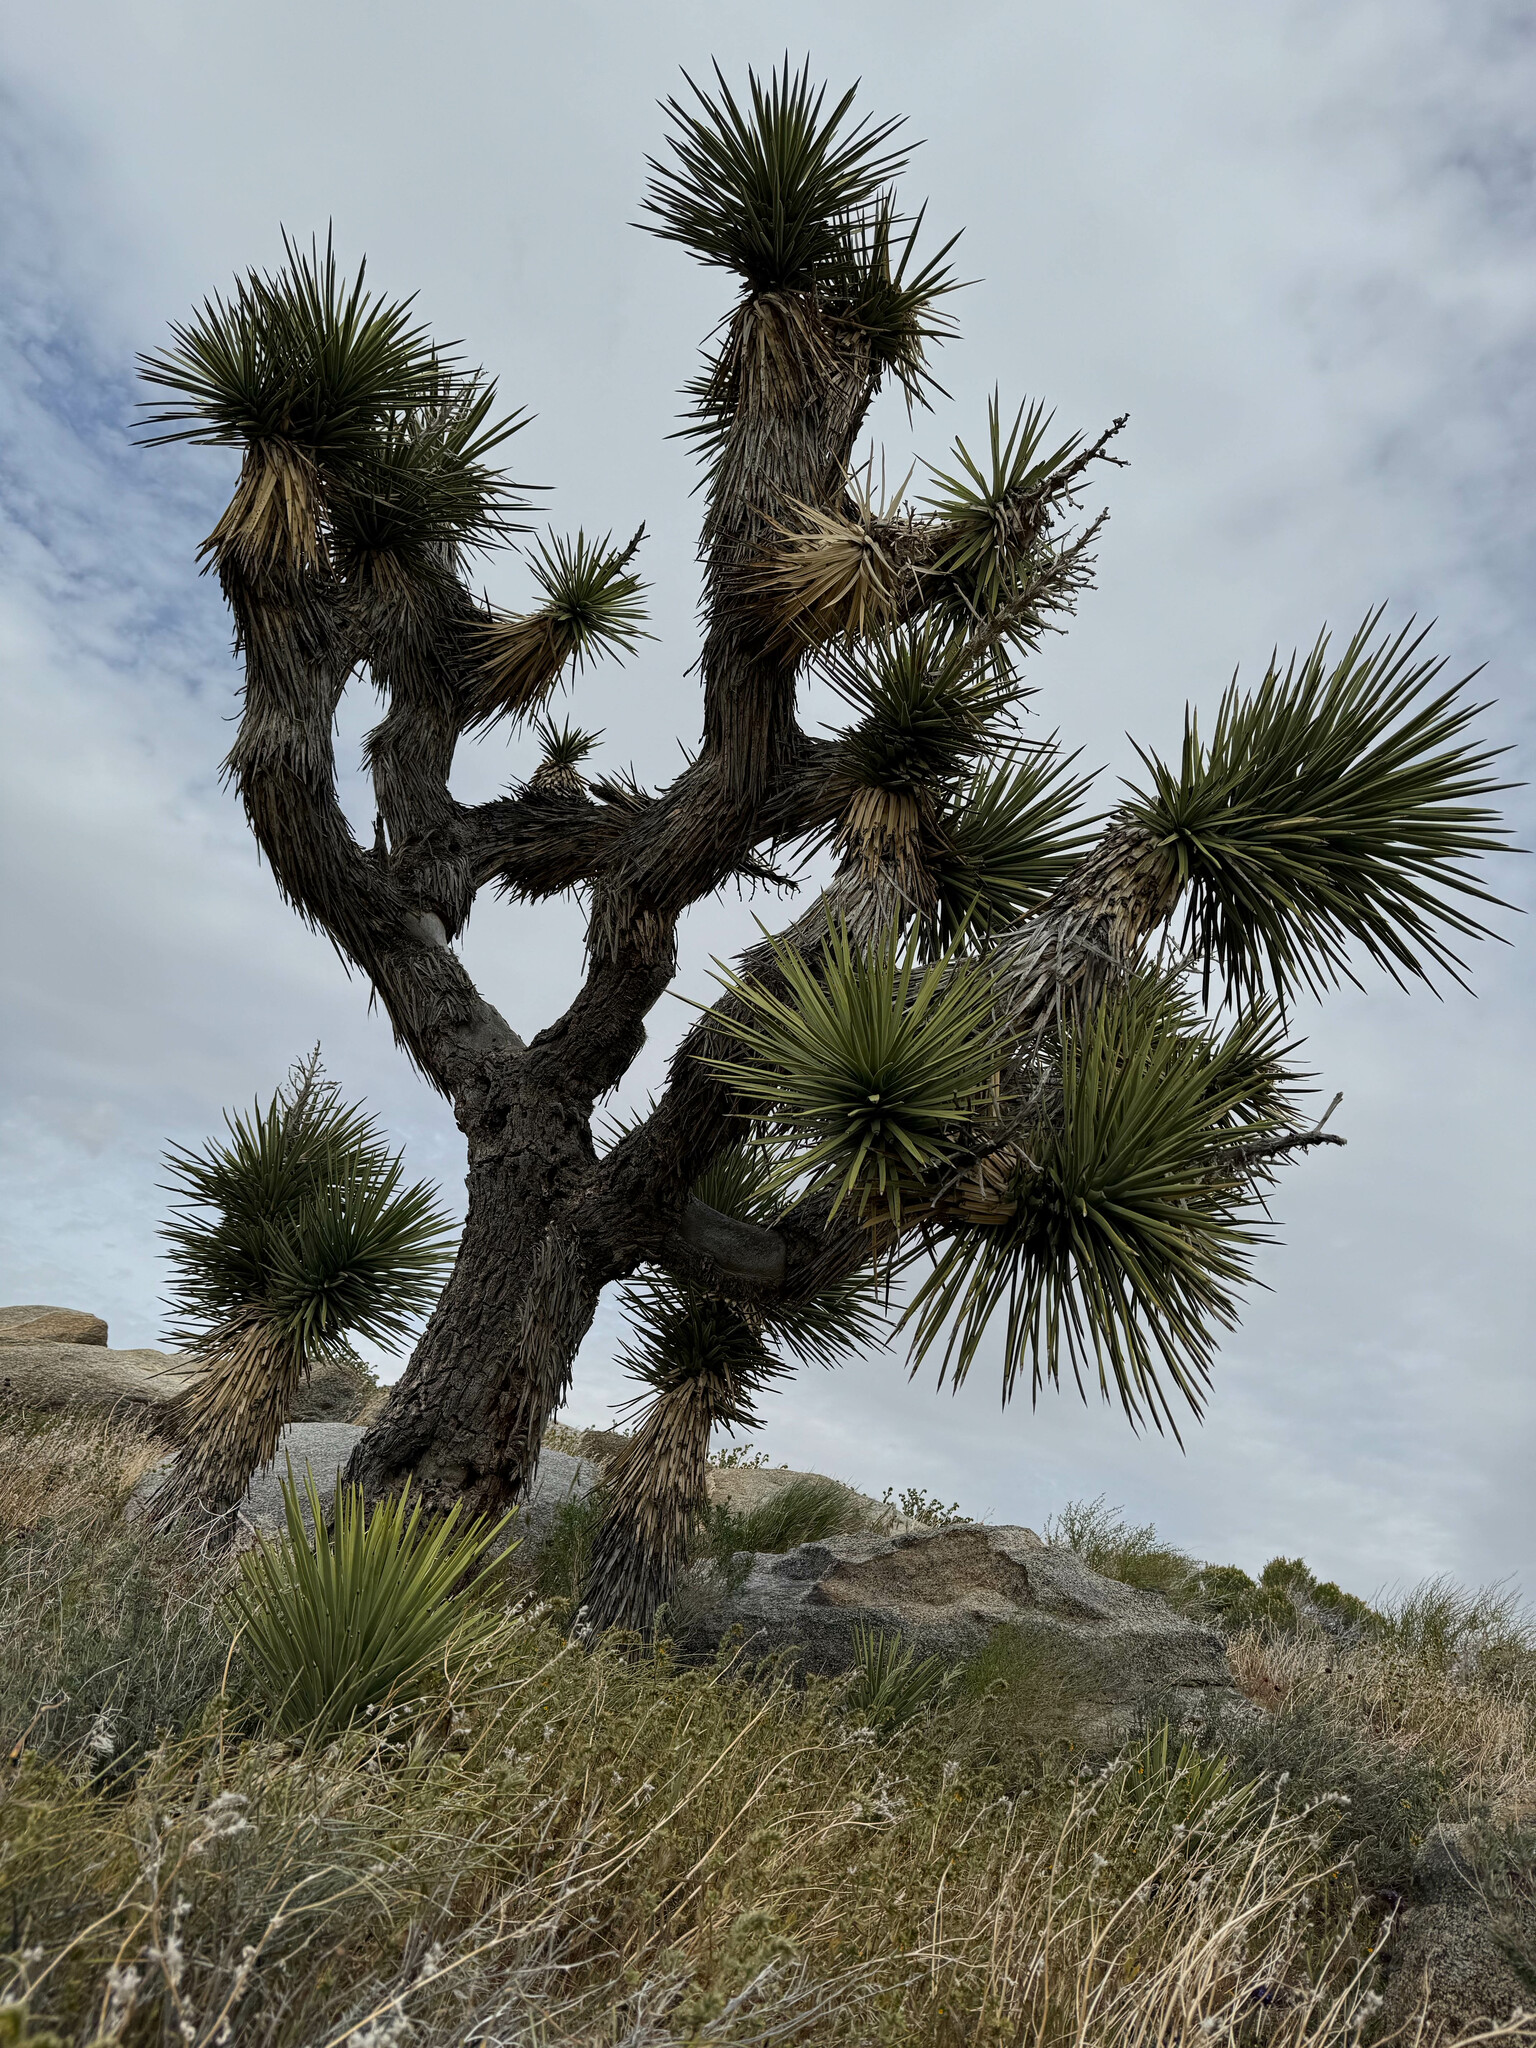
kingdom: Plantae
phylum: Tracheophyta
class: Liliopsida
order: Asparagales
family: Asparagaceae
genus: Yucca
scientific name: Yucca brevifolia
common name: Joshua tree
